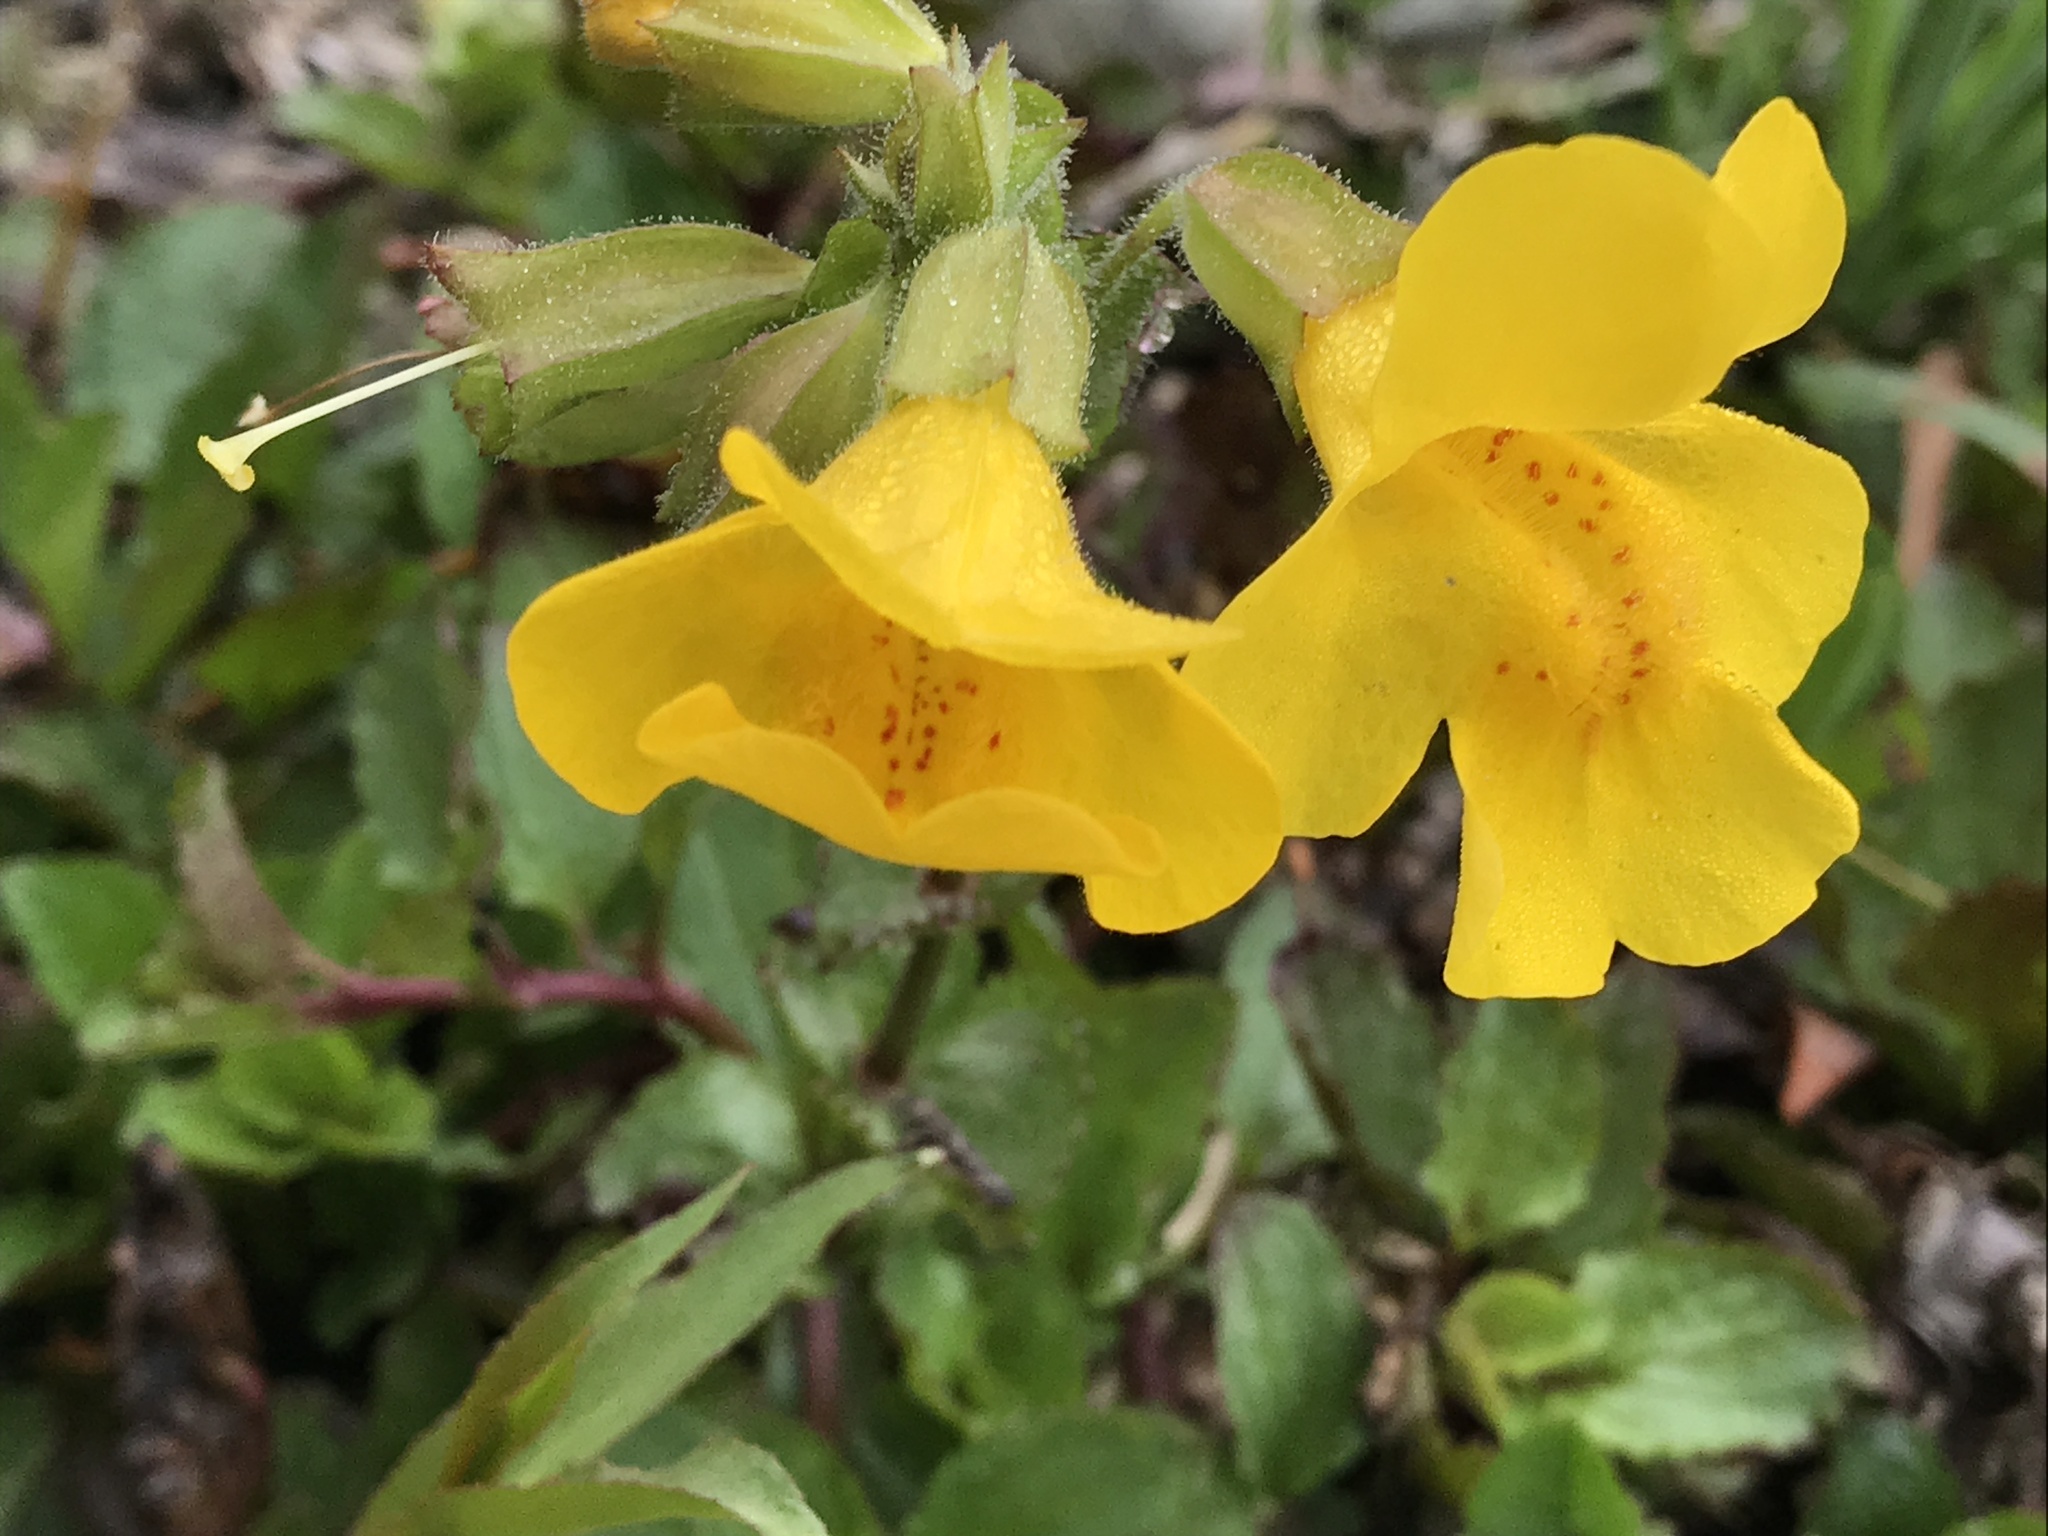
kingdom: Plantae
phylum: Tracheophyta
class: Magnoliopsida
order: Lamiales
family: Phrymaceae
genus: Erythranthe
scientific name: Erythranthe guttata
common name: Monkeyflower
